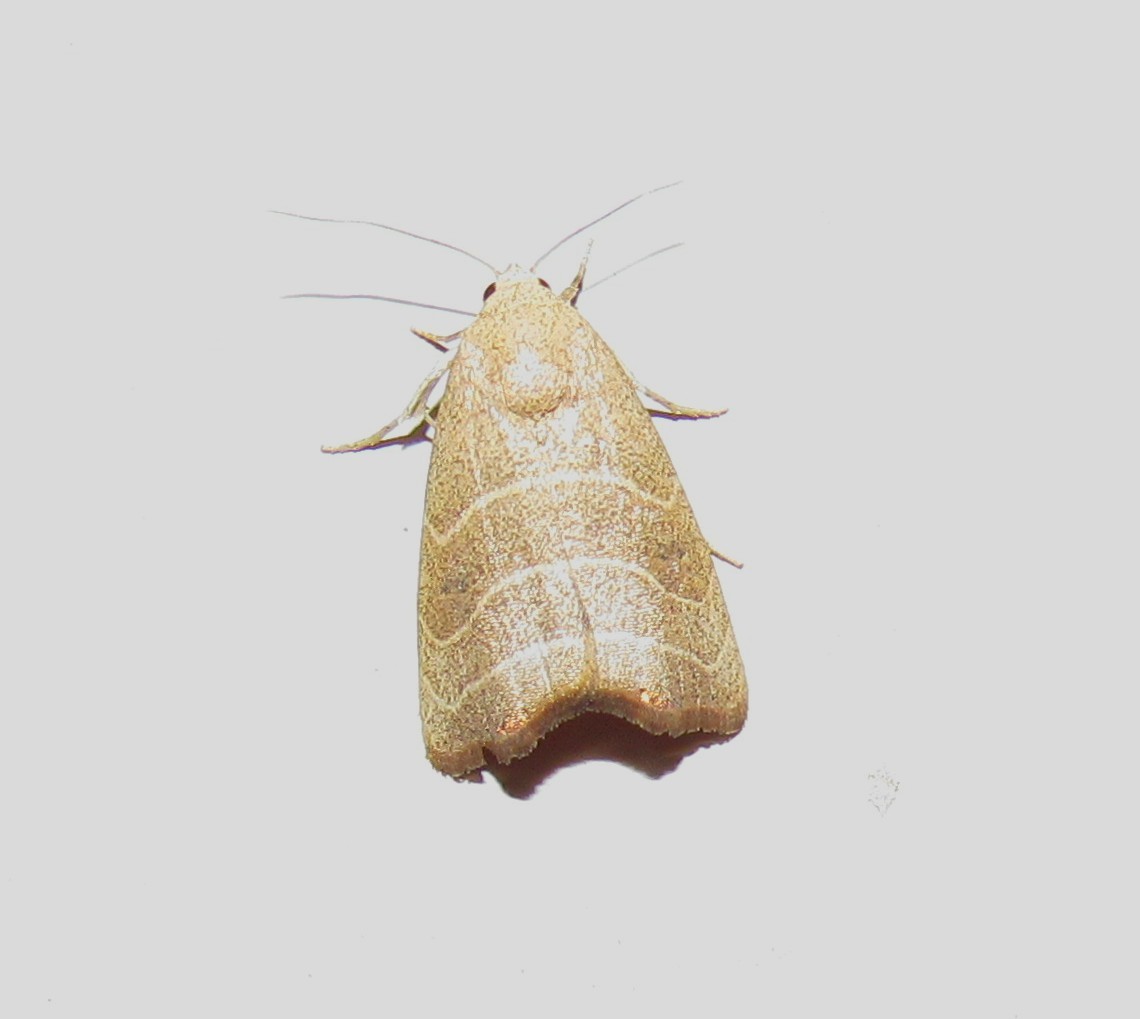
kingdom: Animalia
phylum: Arthropoda
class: Insecta
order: Lepidoptera
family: Noctuidae
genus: Bagisara
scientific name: Bagisara repanda
